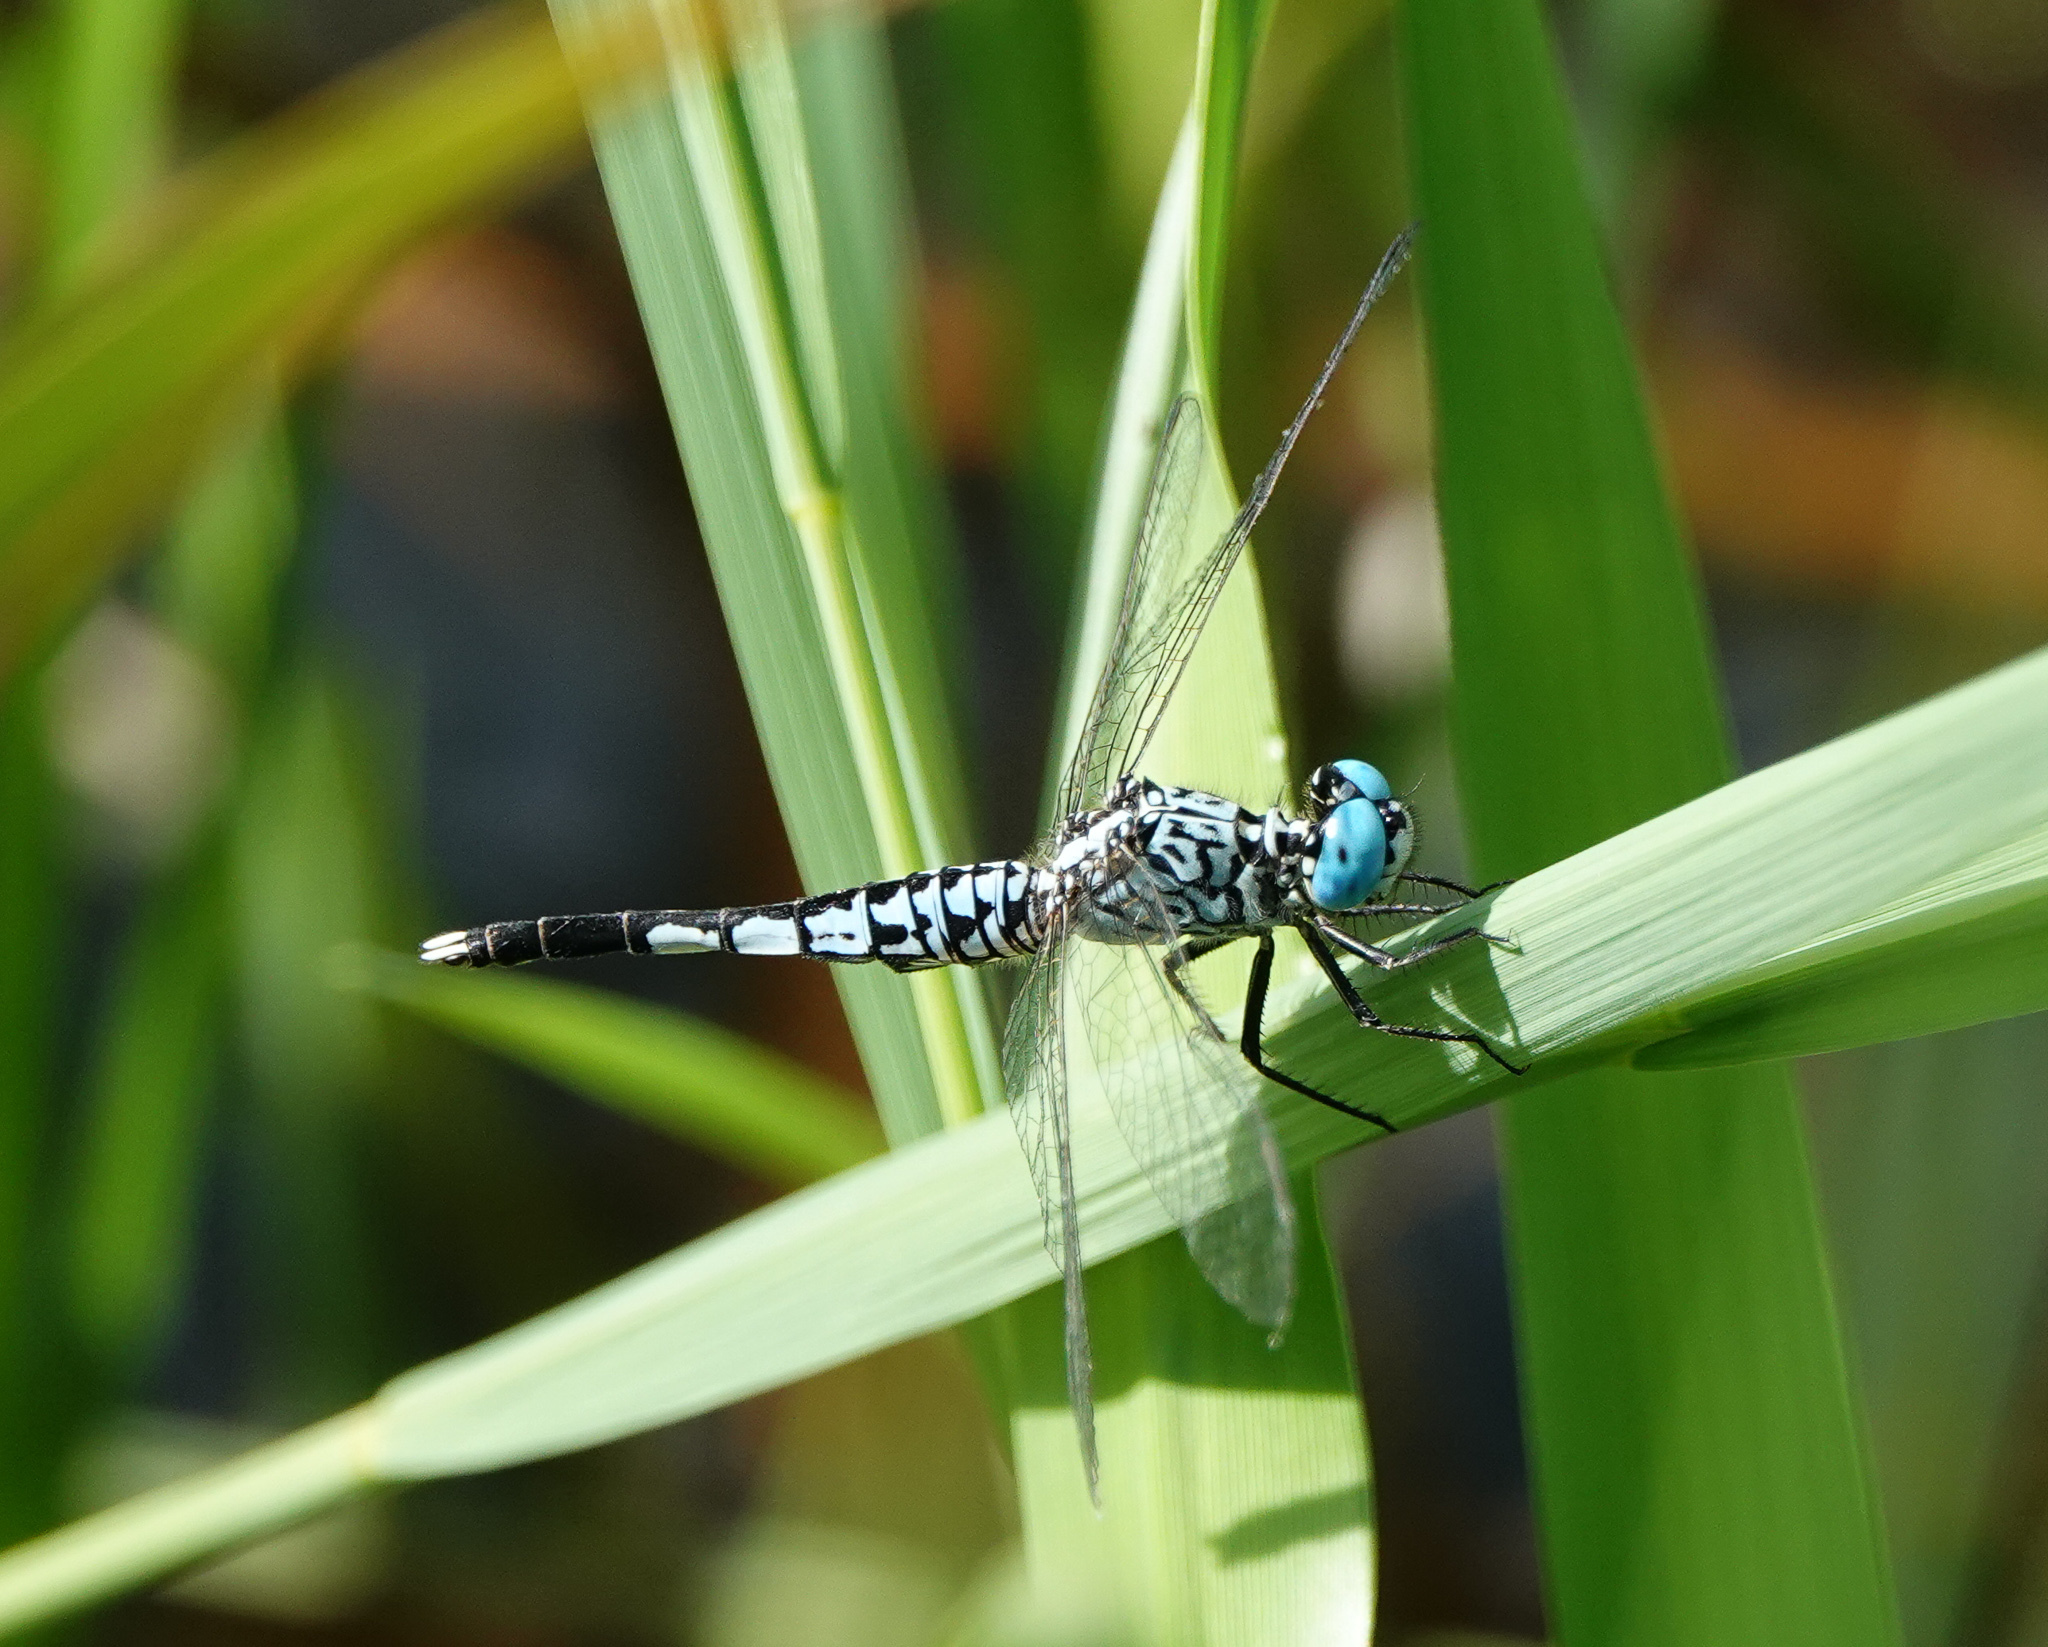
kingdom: Animalia
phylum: Arthropoda
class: Insecta
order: Odonata
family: Libellulidae
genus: Acisoma
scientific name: Acisoma panorpoides
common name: Asian pintail
